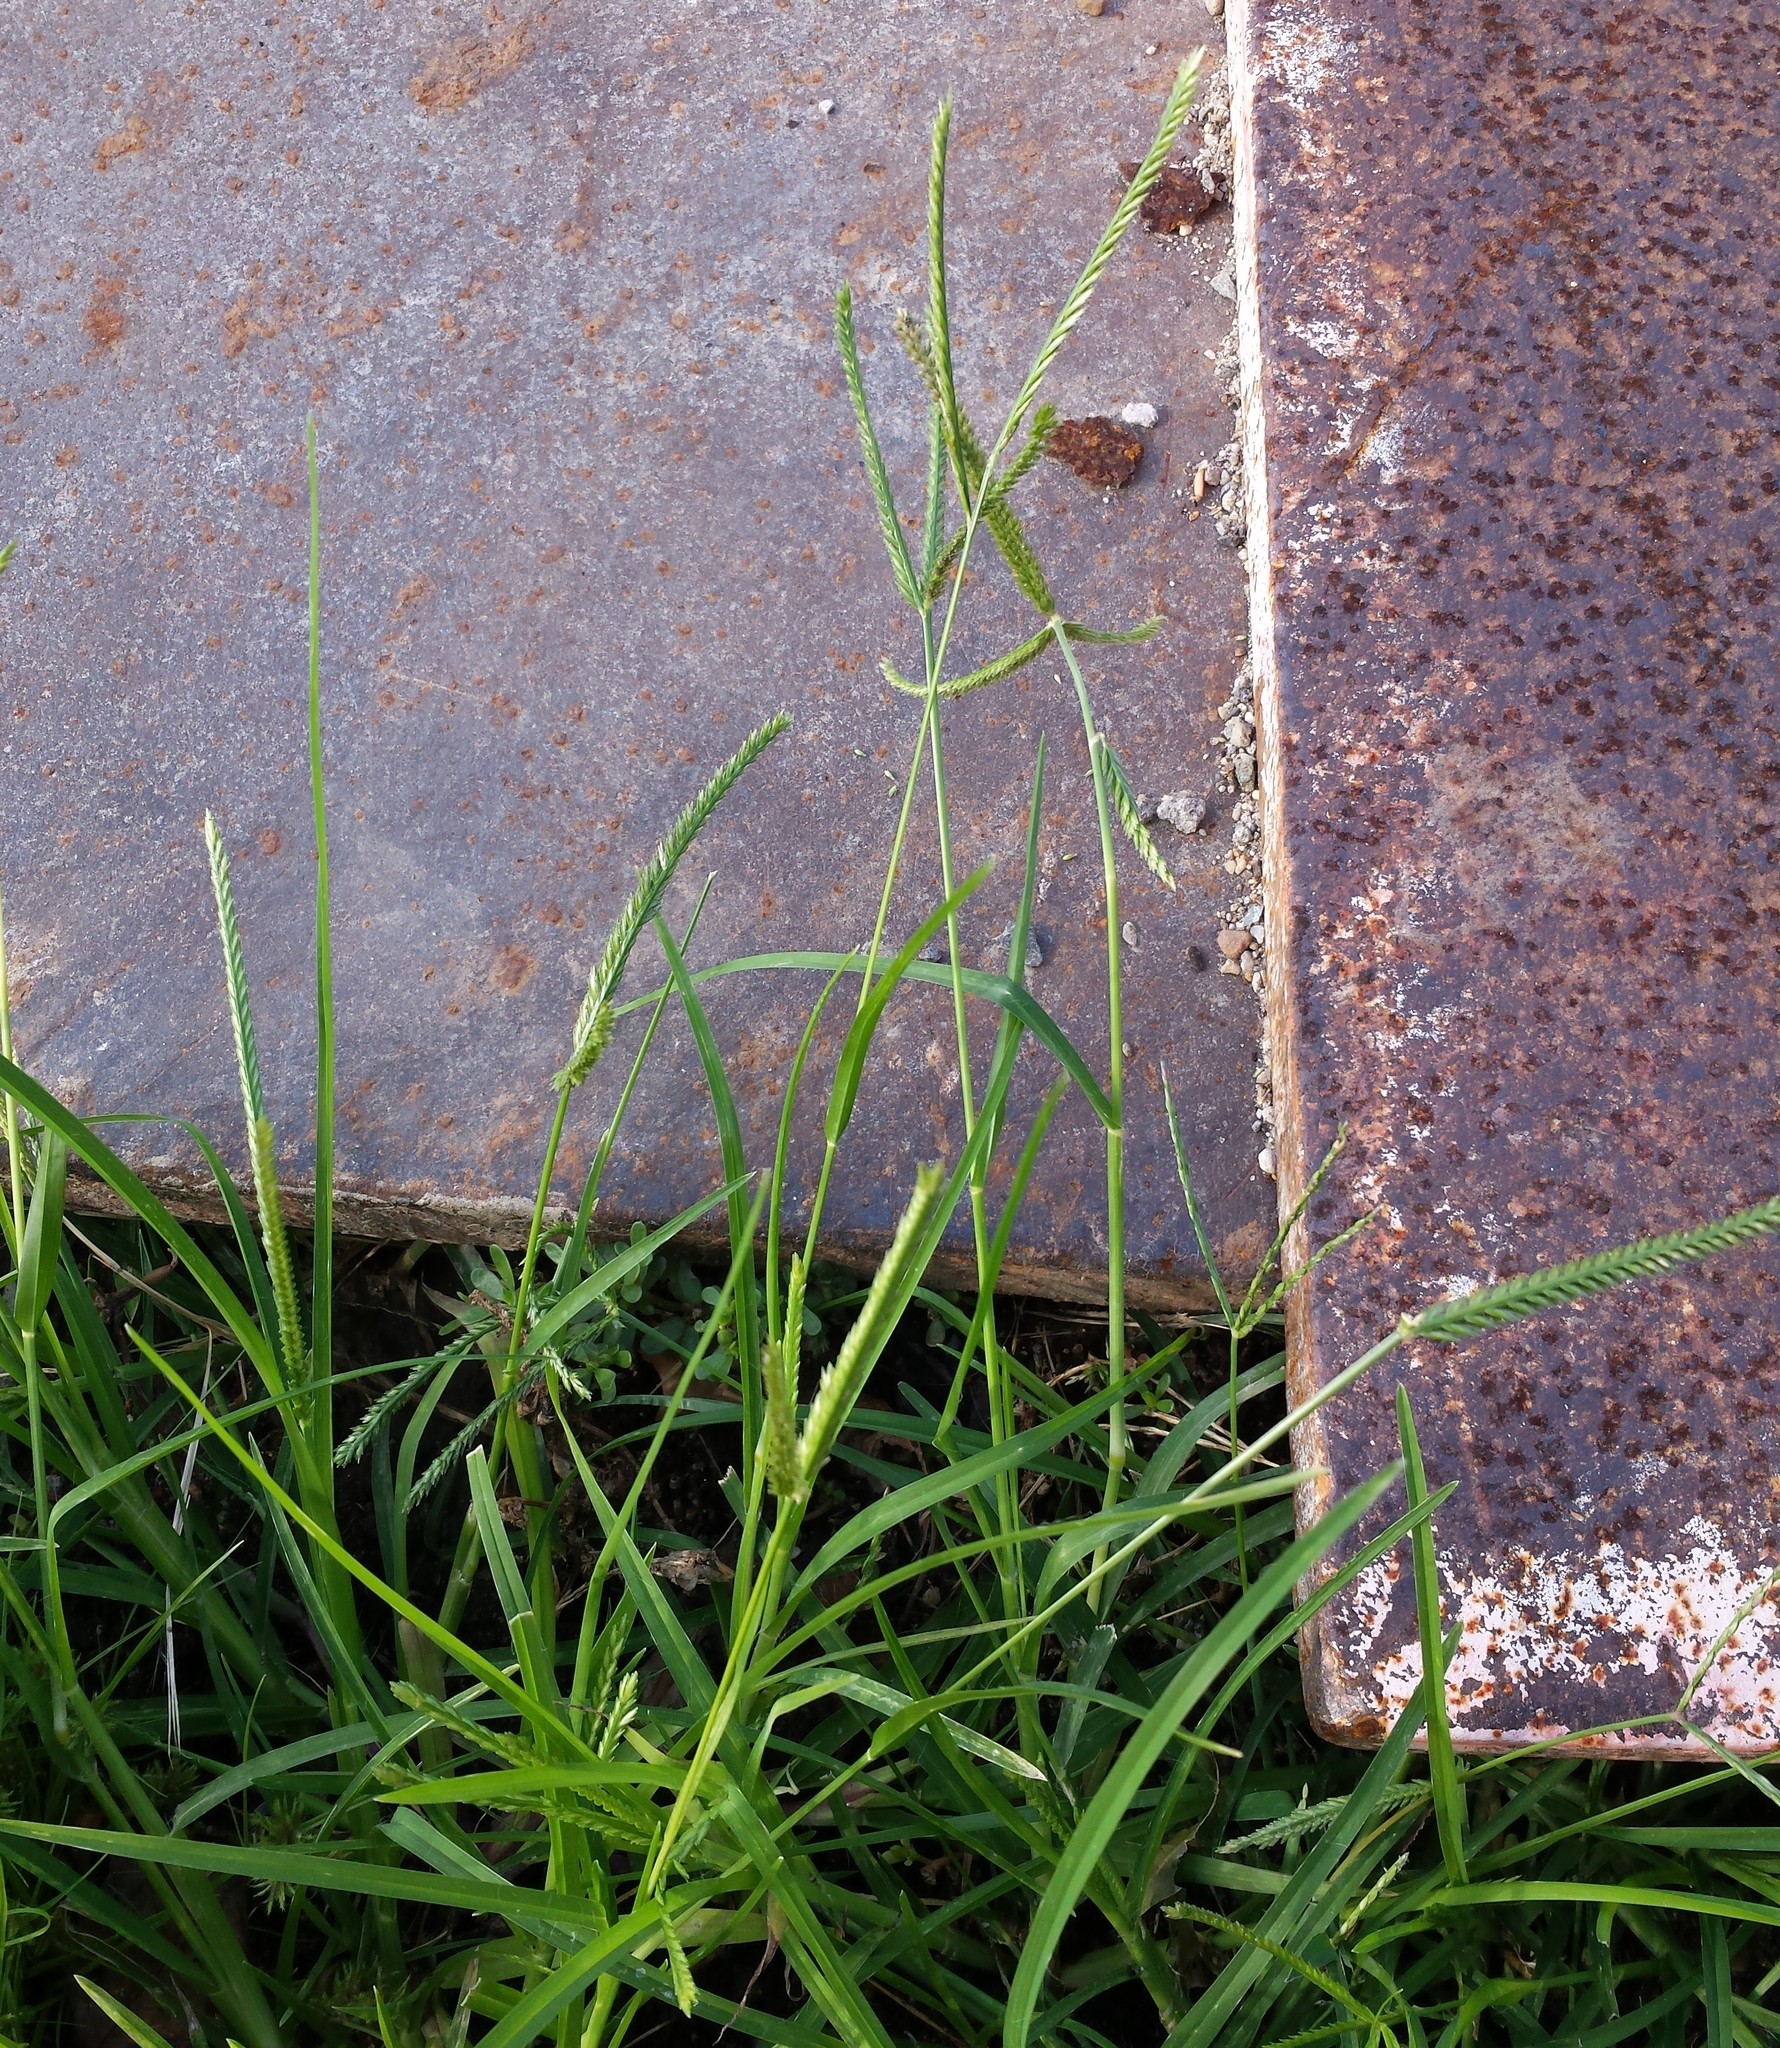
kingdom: Plantae
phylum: Tracheophyta
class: Liliopsida
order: Poales
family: Poaceae
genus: Eleusine
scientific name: Eleusine indica
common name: Yard-grass
